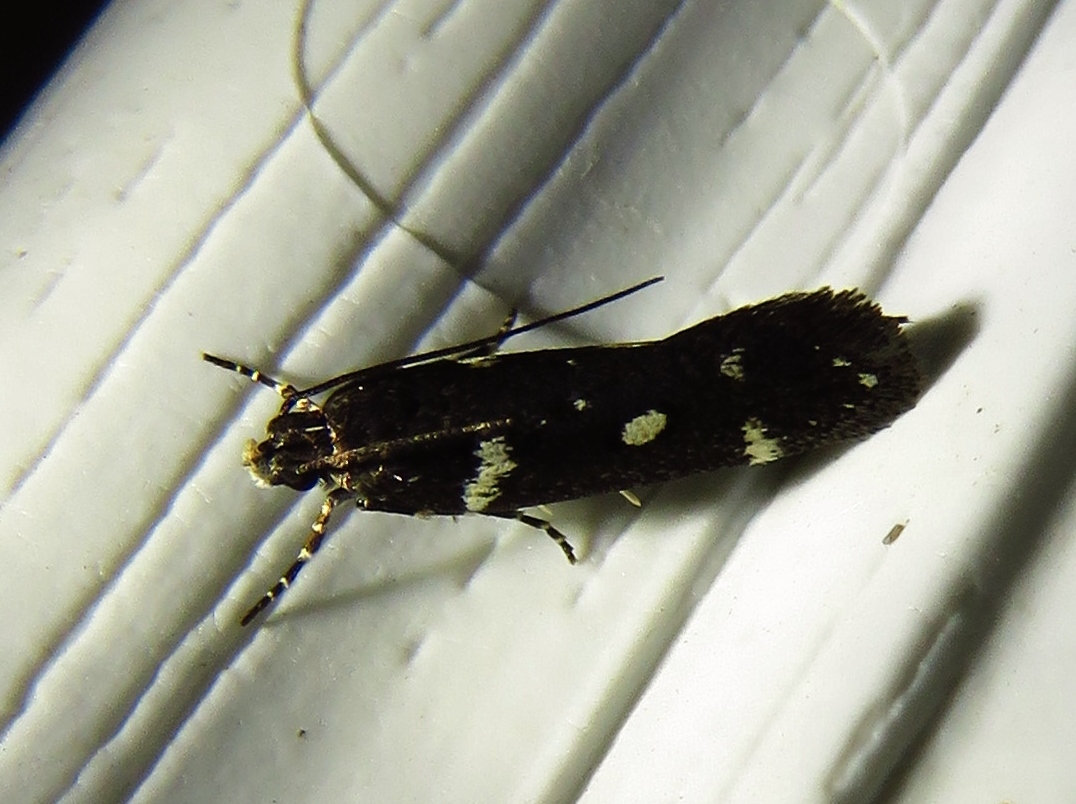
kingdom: Animalia
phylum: Arthropoda
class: Insecta
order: Lepidoptera
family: Gelechiidae
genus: Aroga
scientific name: Aroga compositella
